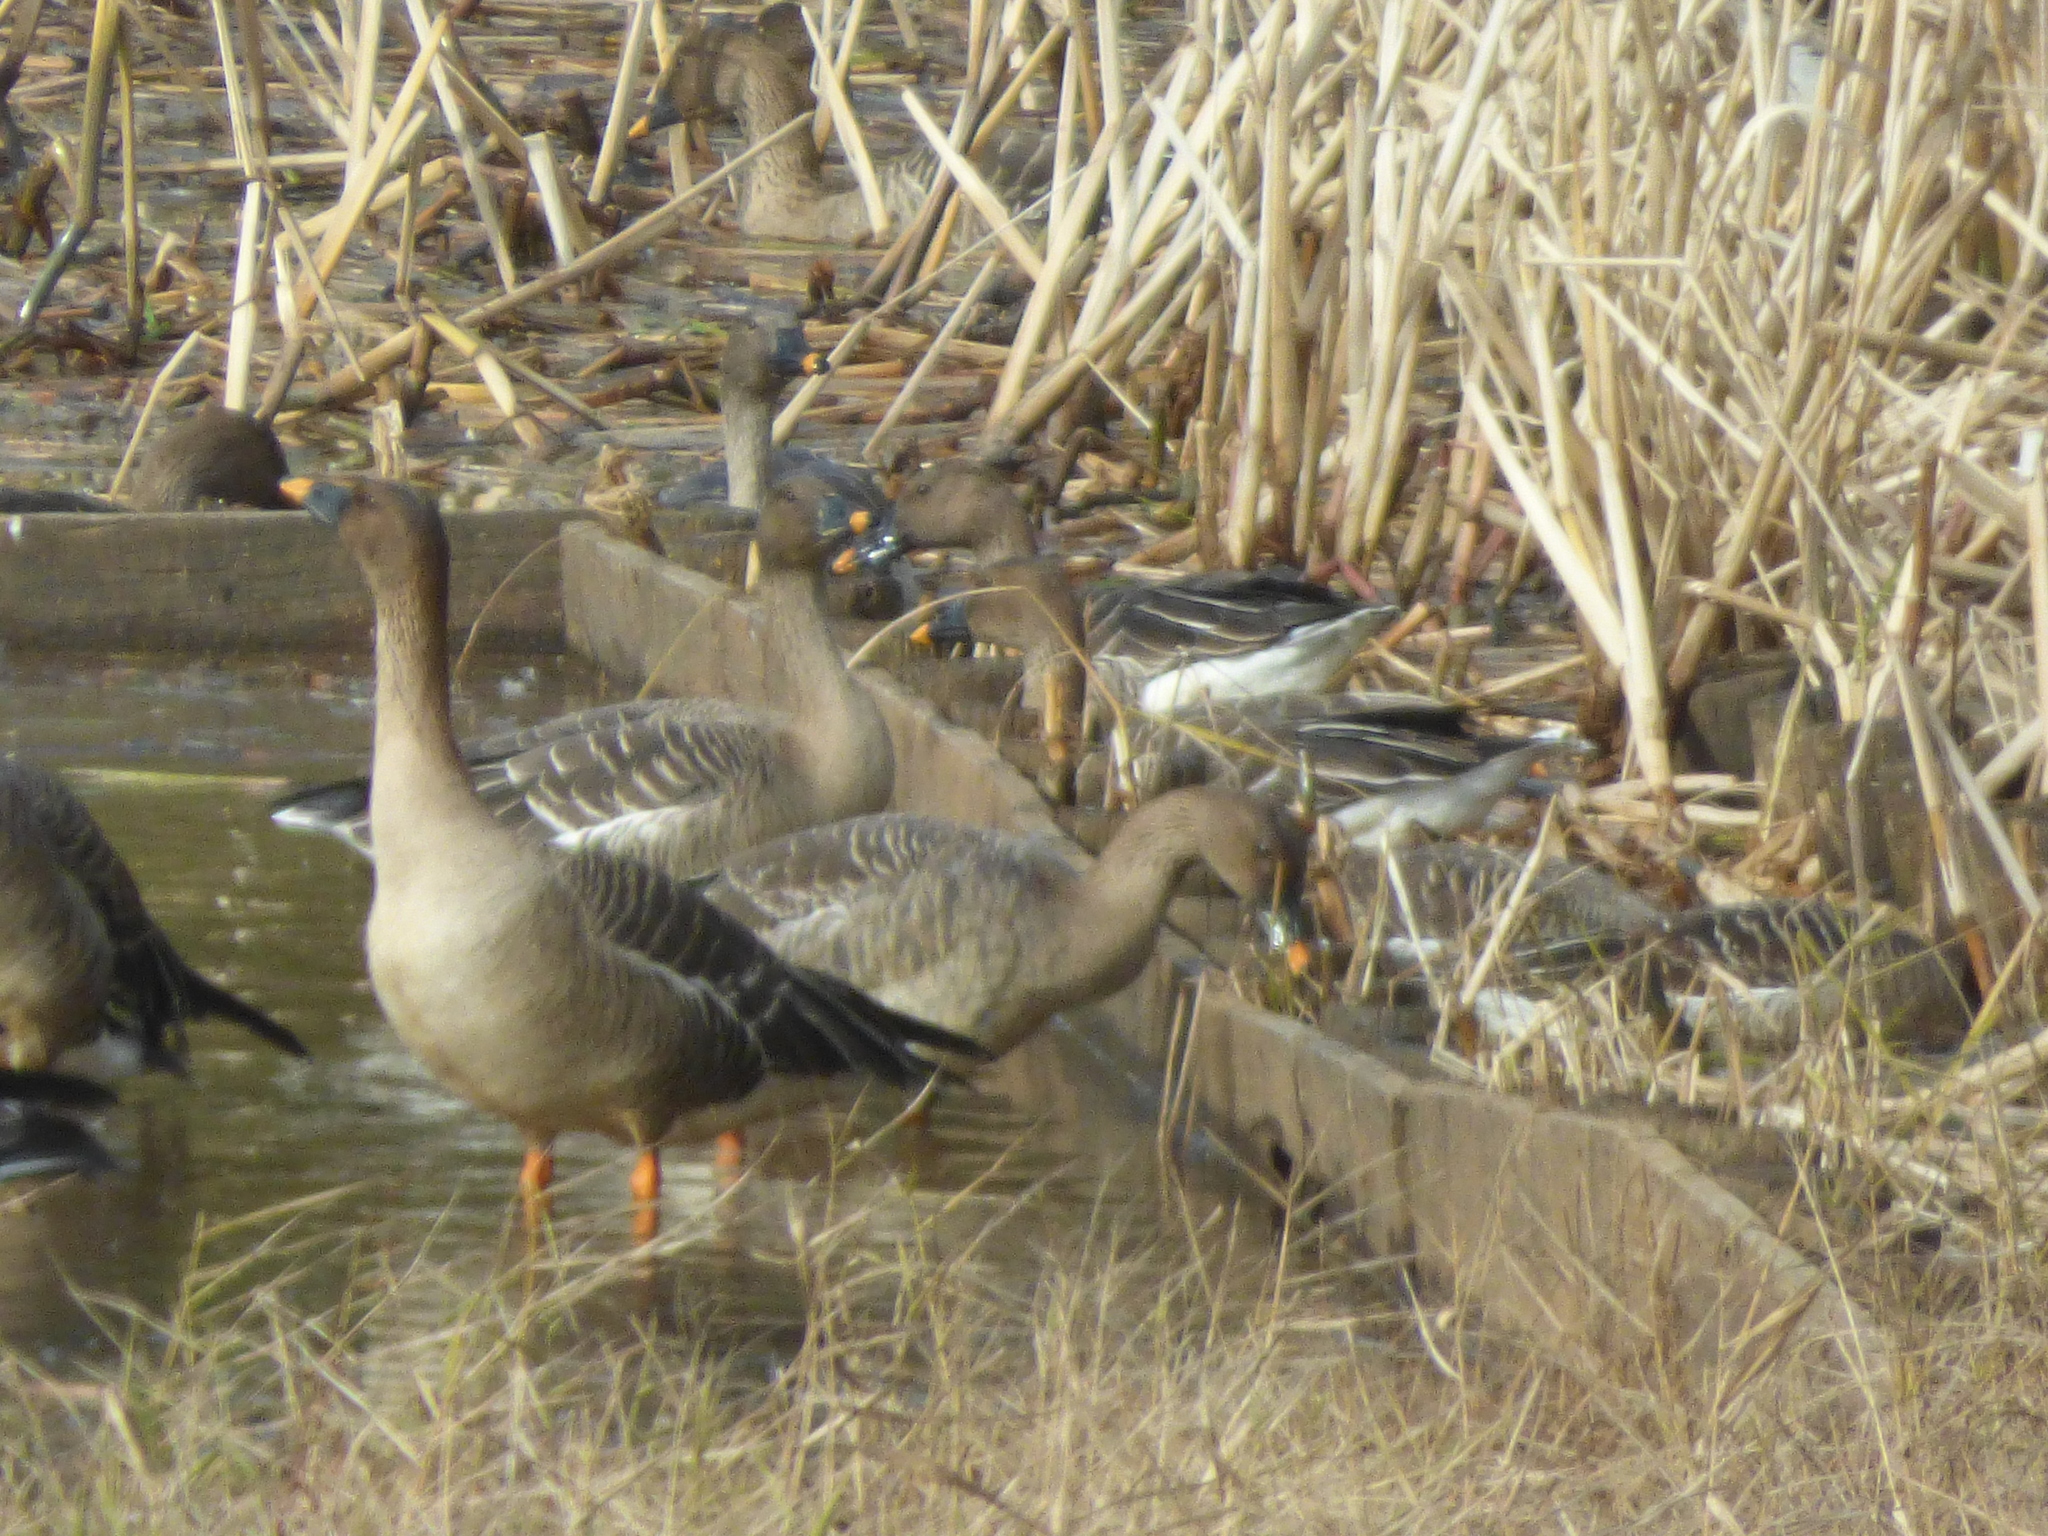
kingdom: Animalia
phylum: Chordata
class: Aves
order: Anseriformes
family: Anatidae
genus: Anser
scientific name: Anser fabalis
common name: Bean goose
